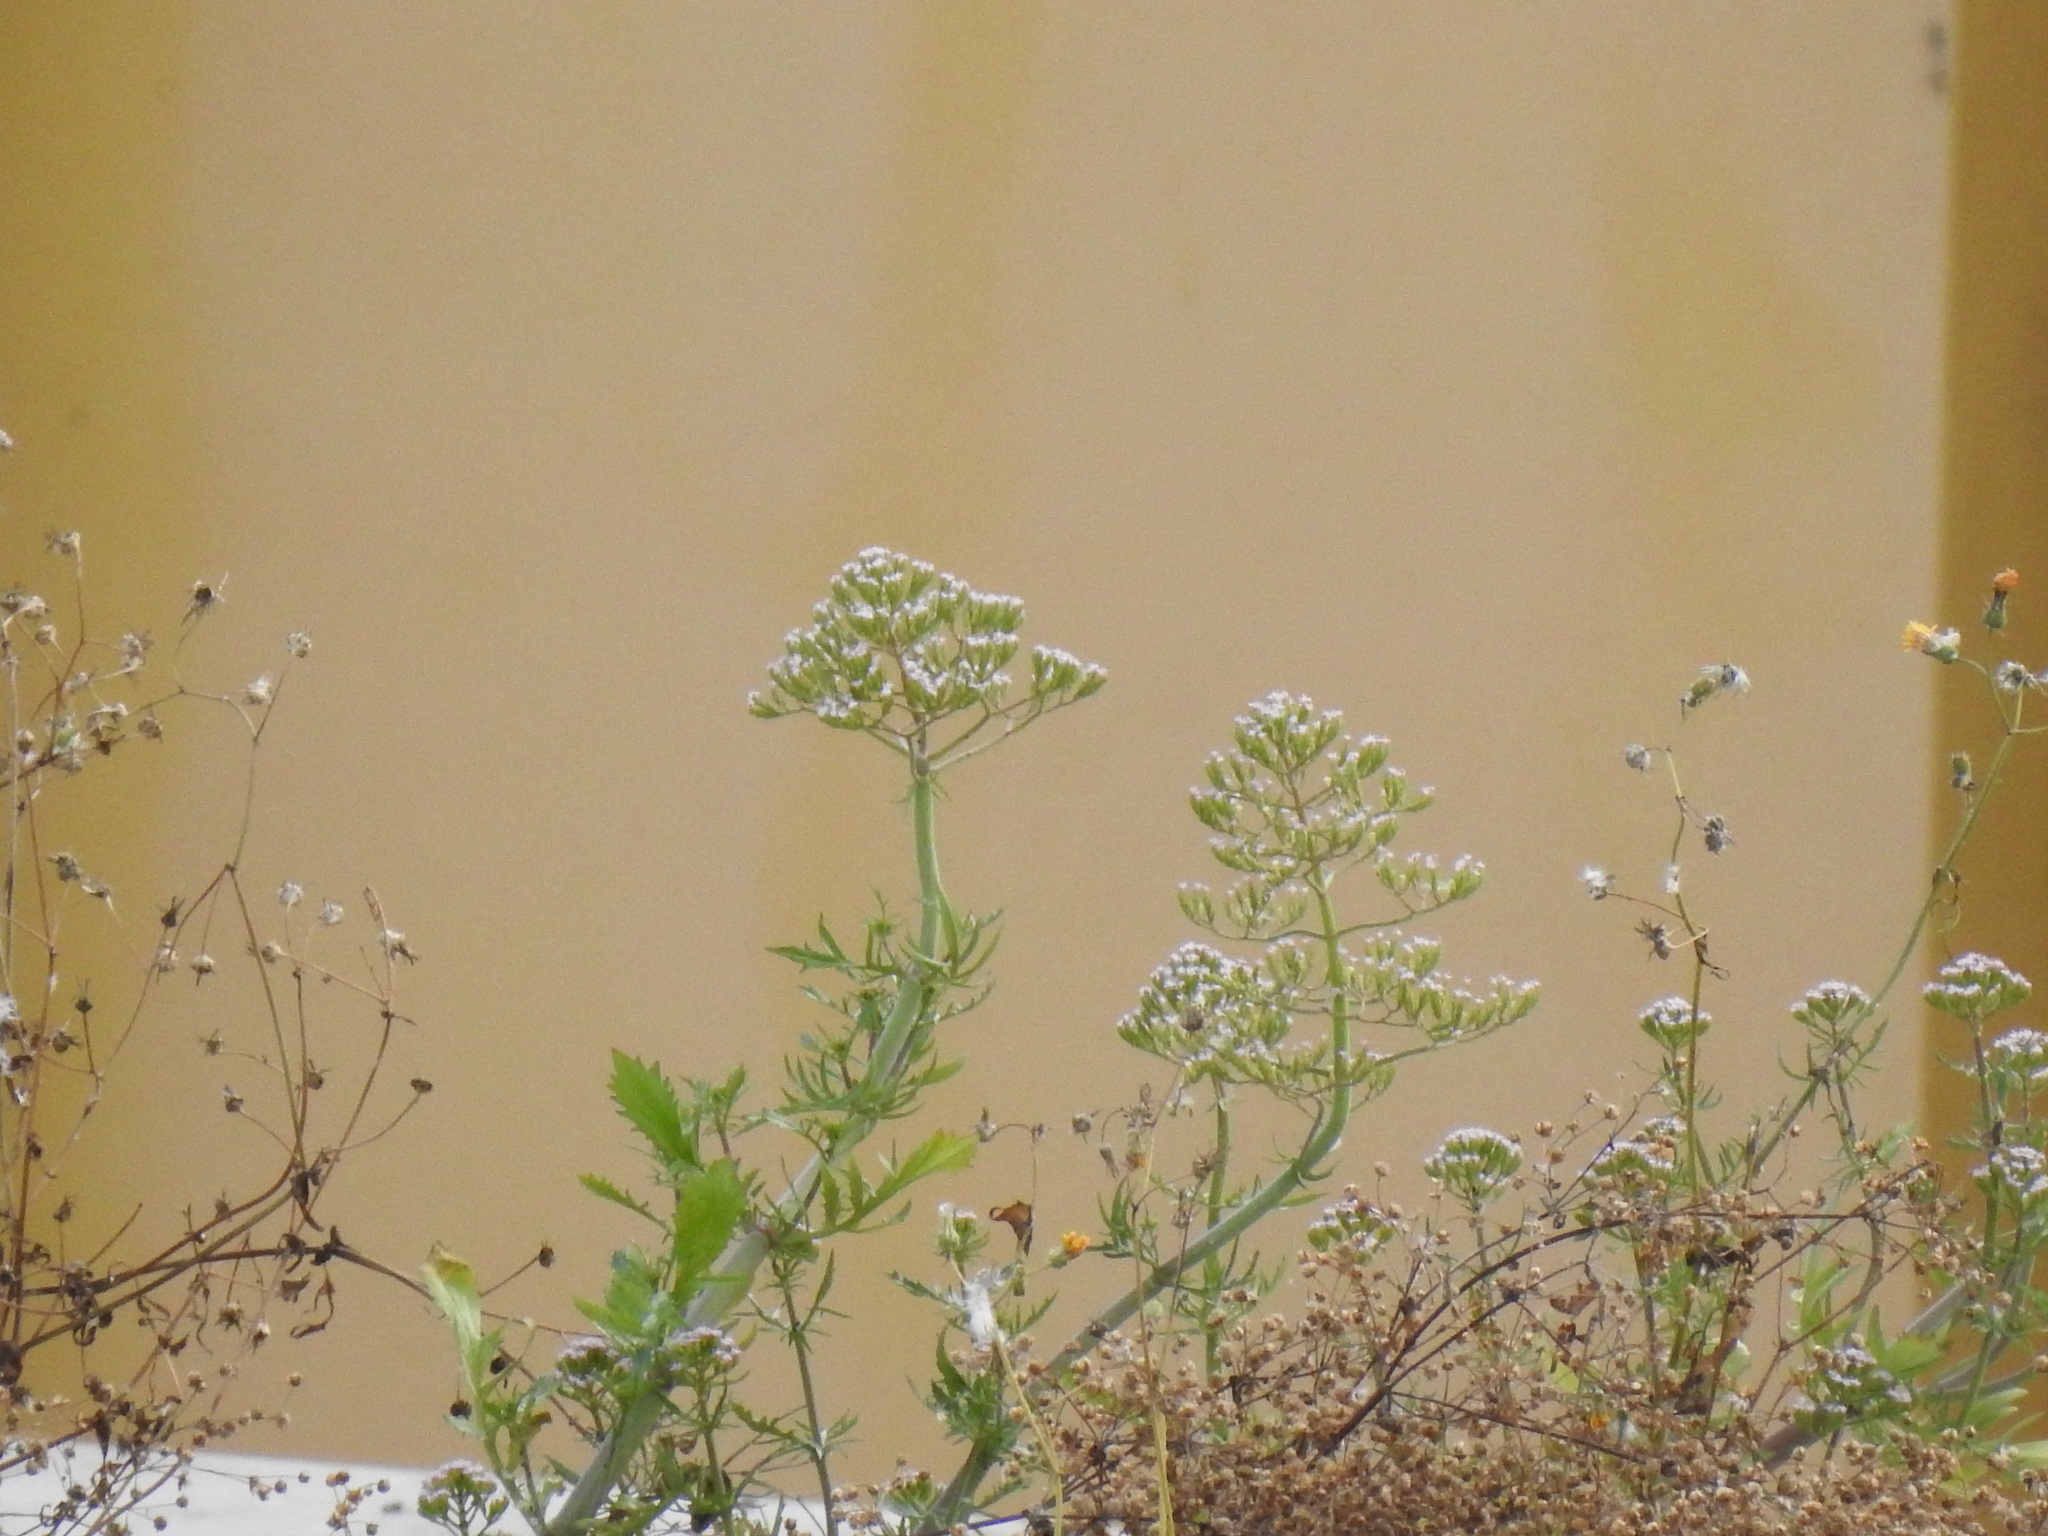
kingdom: Plantae
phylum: Tracheophyta
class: Magnoliopsida
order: Dipsacales
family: Caprifoliaceae
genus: Centranthus
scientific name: Centranthus calcitrapae
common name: Annual valerian
